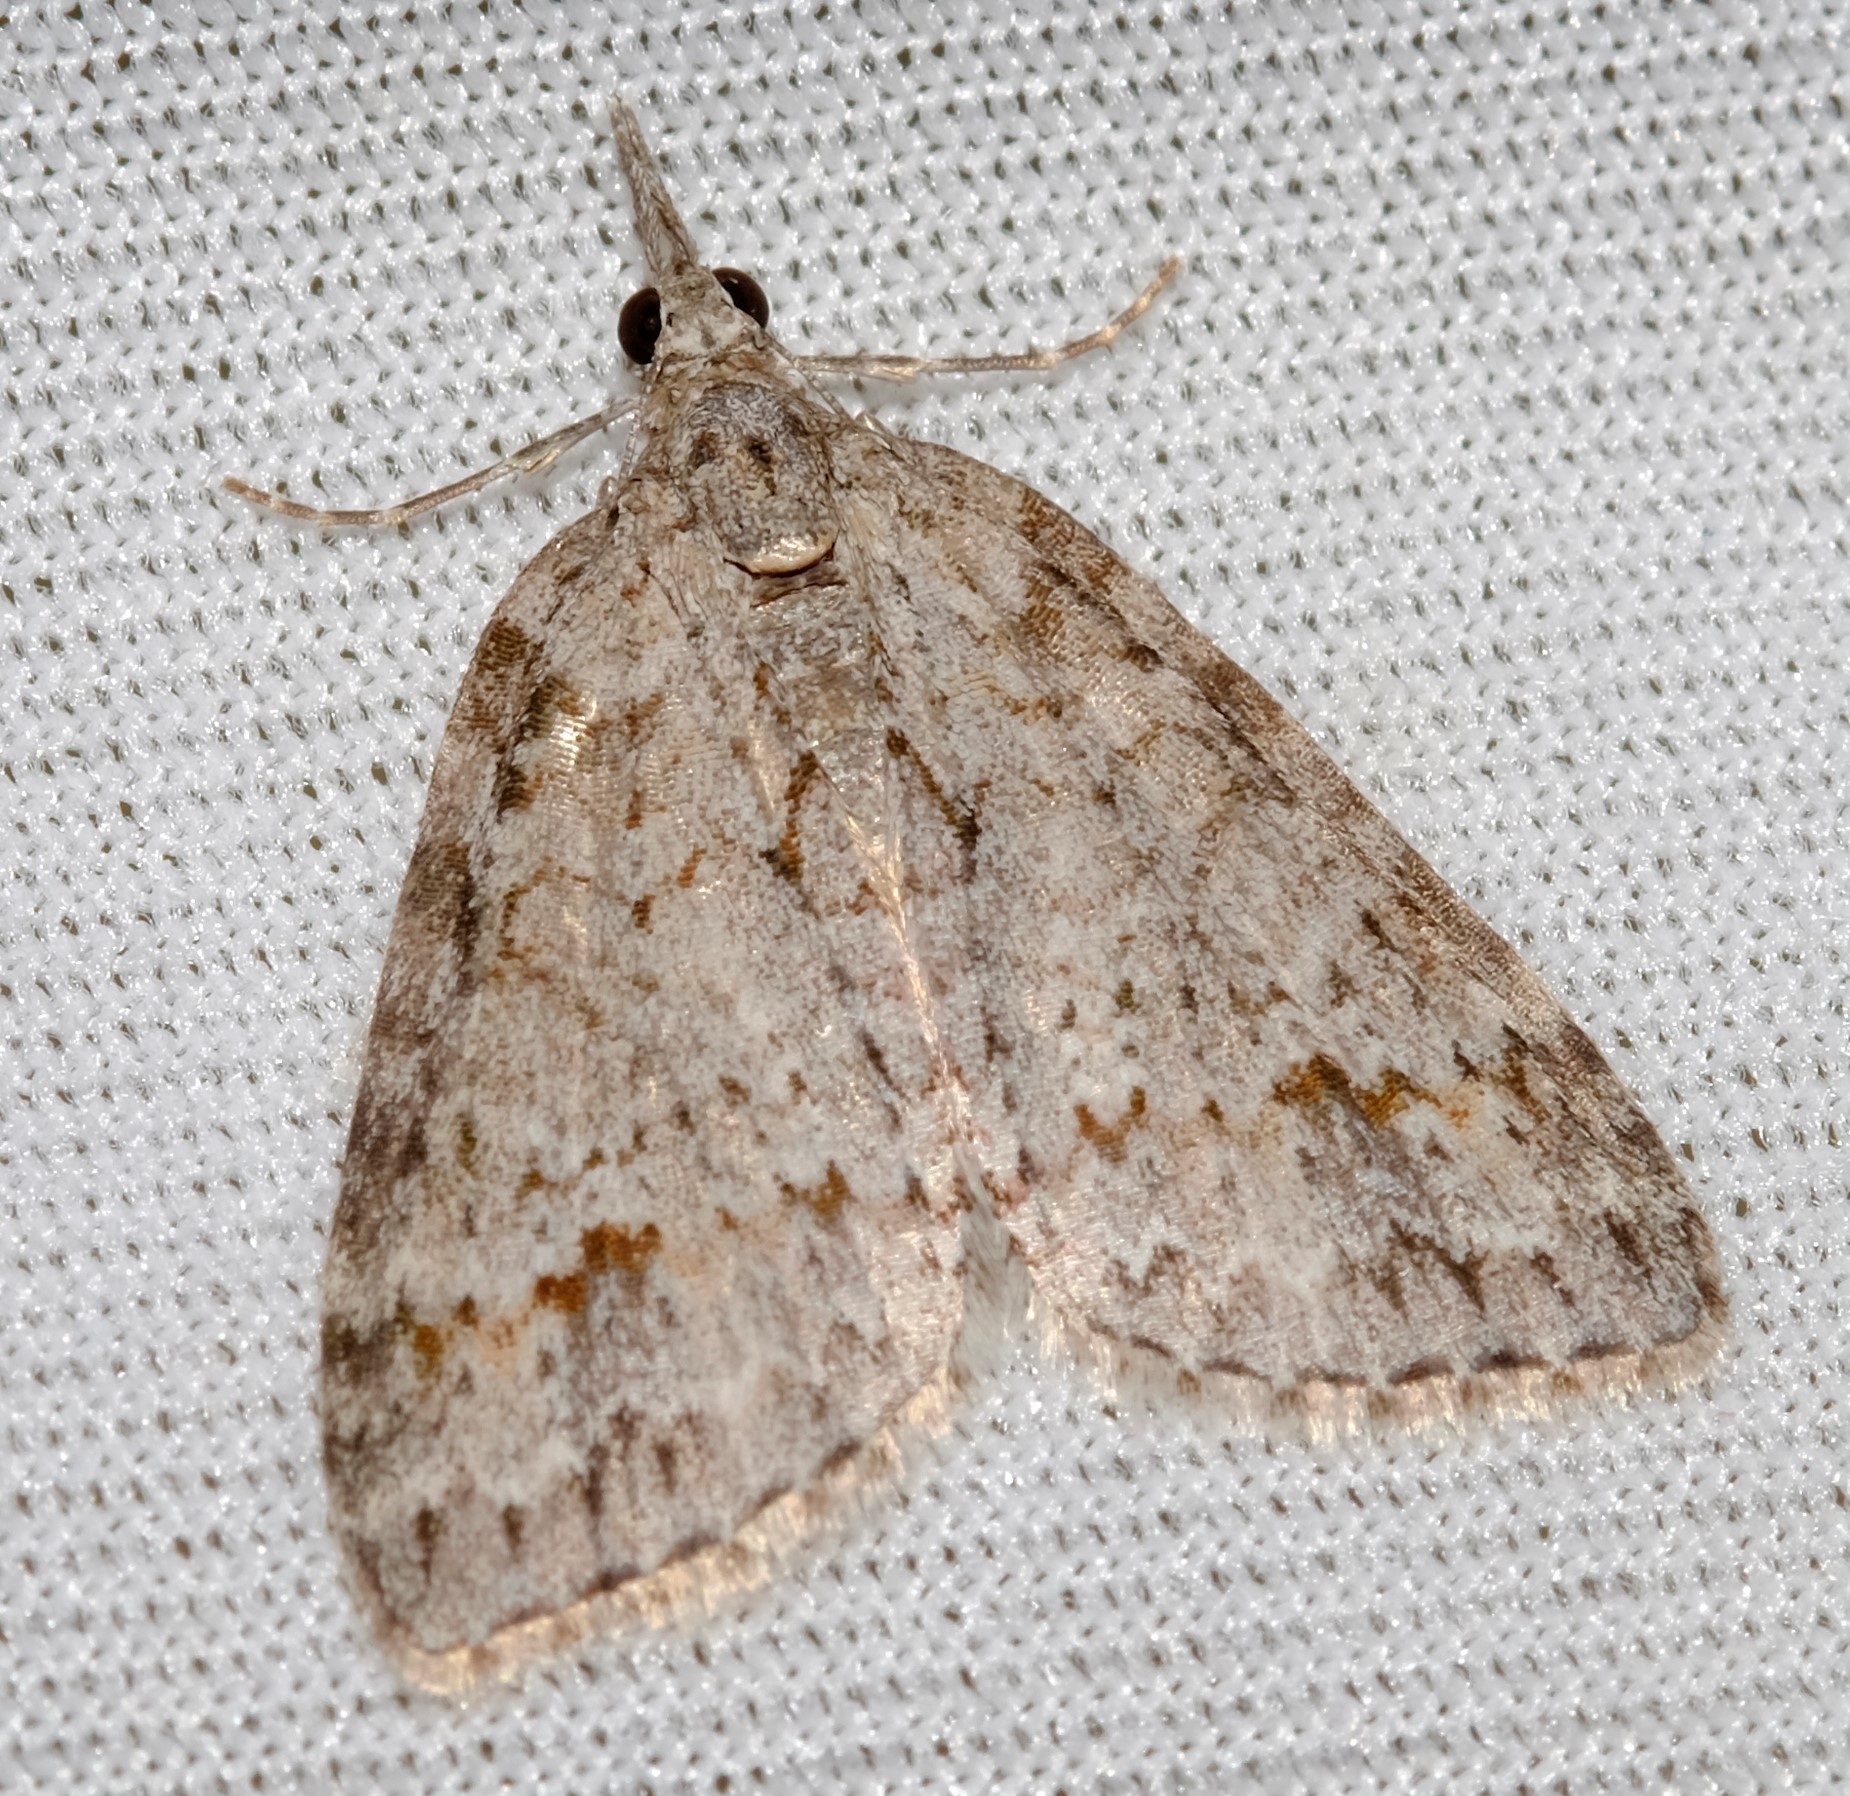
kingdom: Animalia
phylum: Arthropoda
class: Insecta
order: Lepidoptera
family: Geometridae
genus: Microdes
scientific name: Microdes villosata
